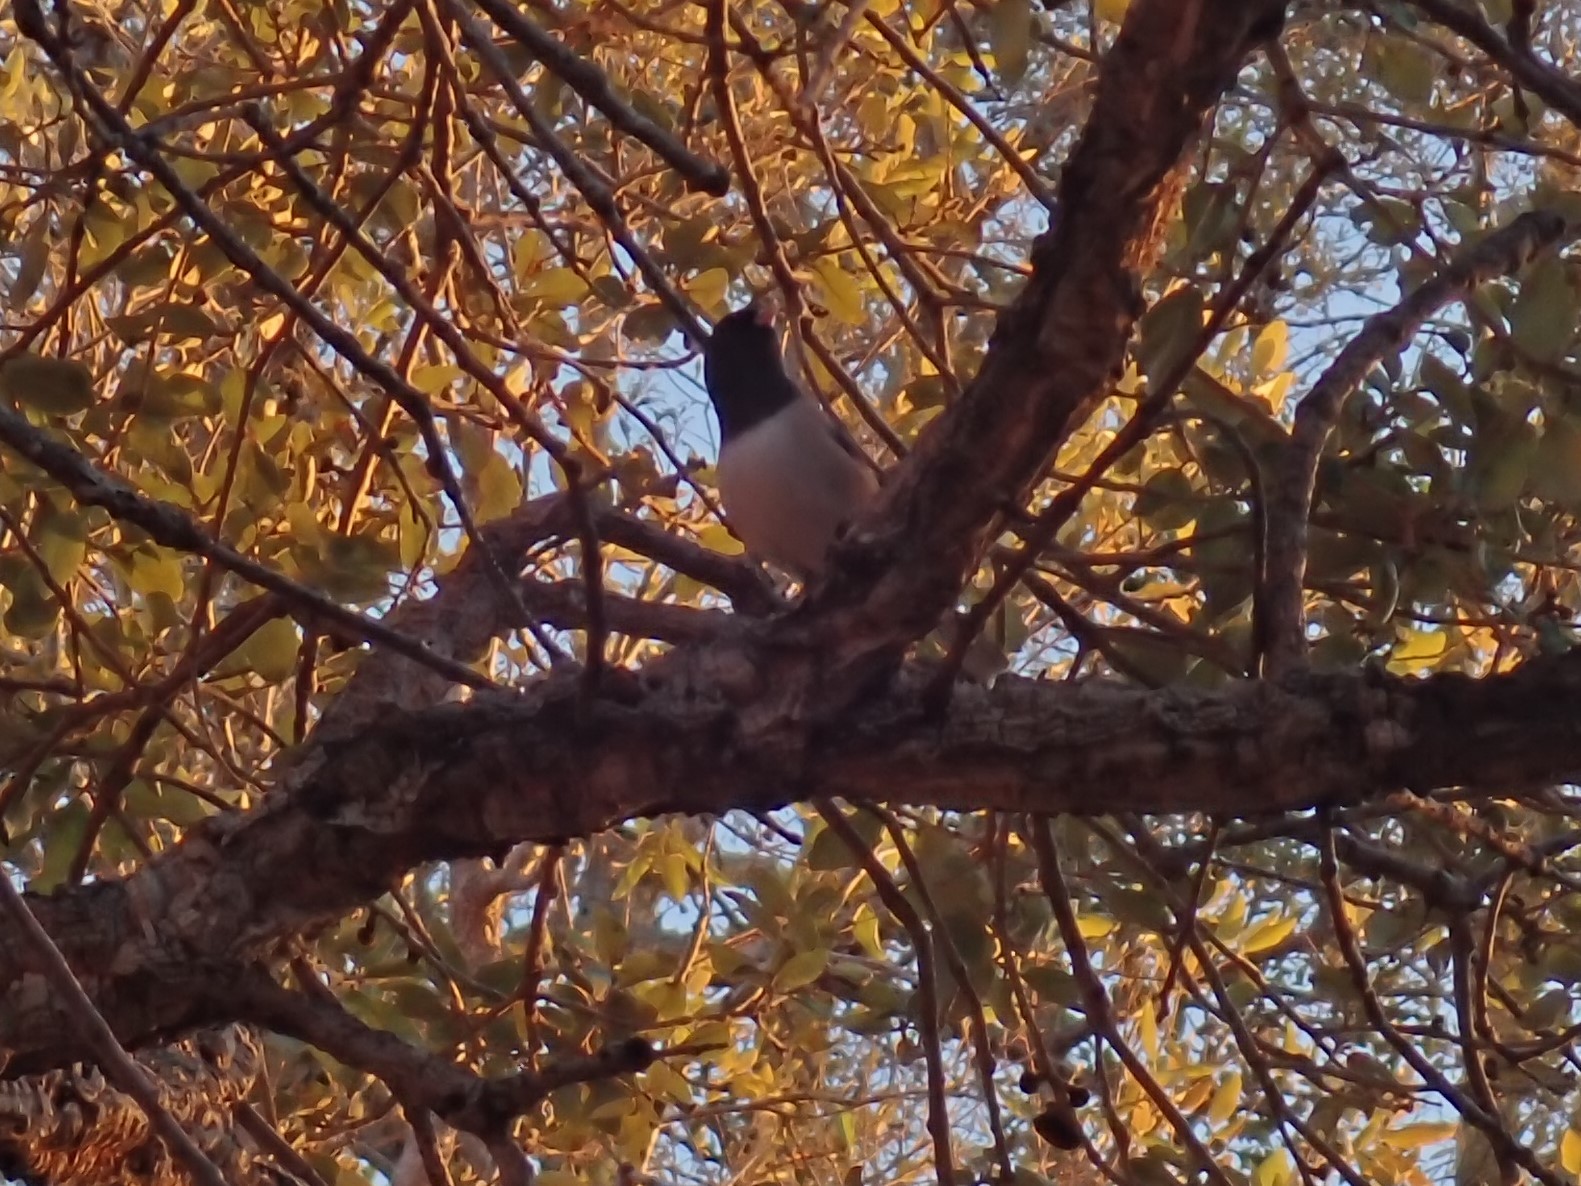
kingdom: Animalia
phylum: Chordata
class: Aves
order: Passeriformes
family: Passerellidae
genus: Junco
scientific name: Junco hyemalis
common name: Dark-eyed junco
